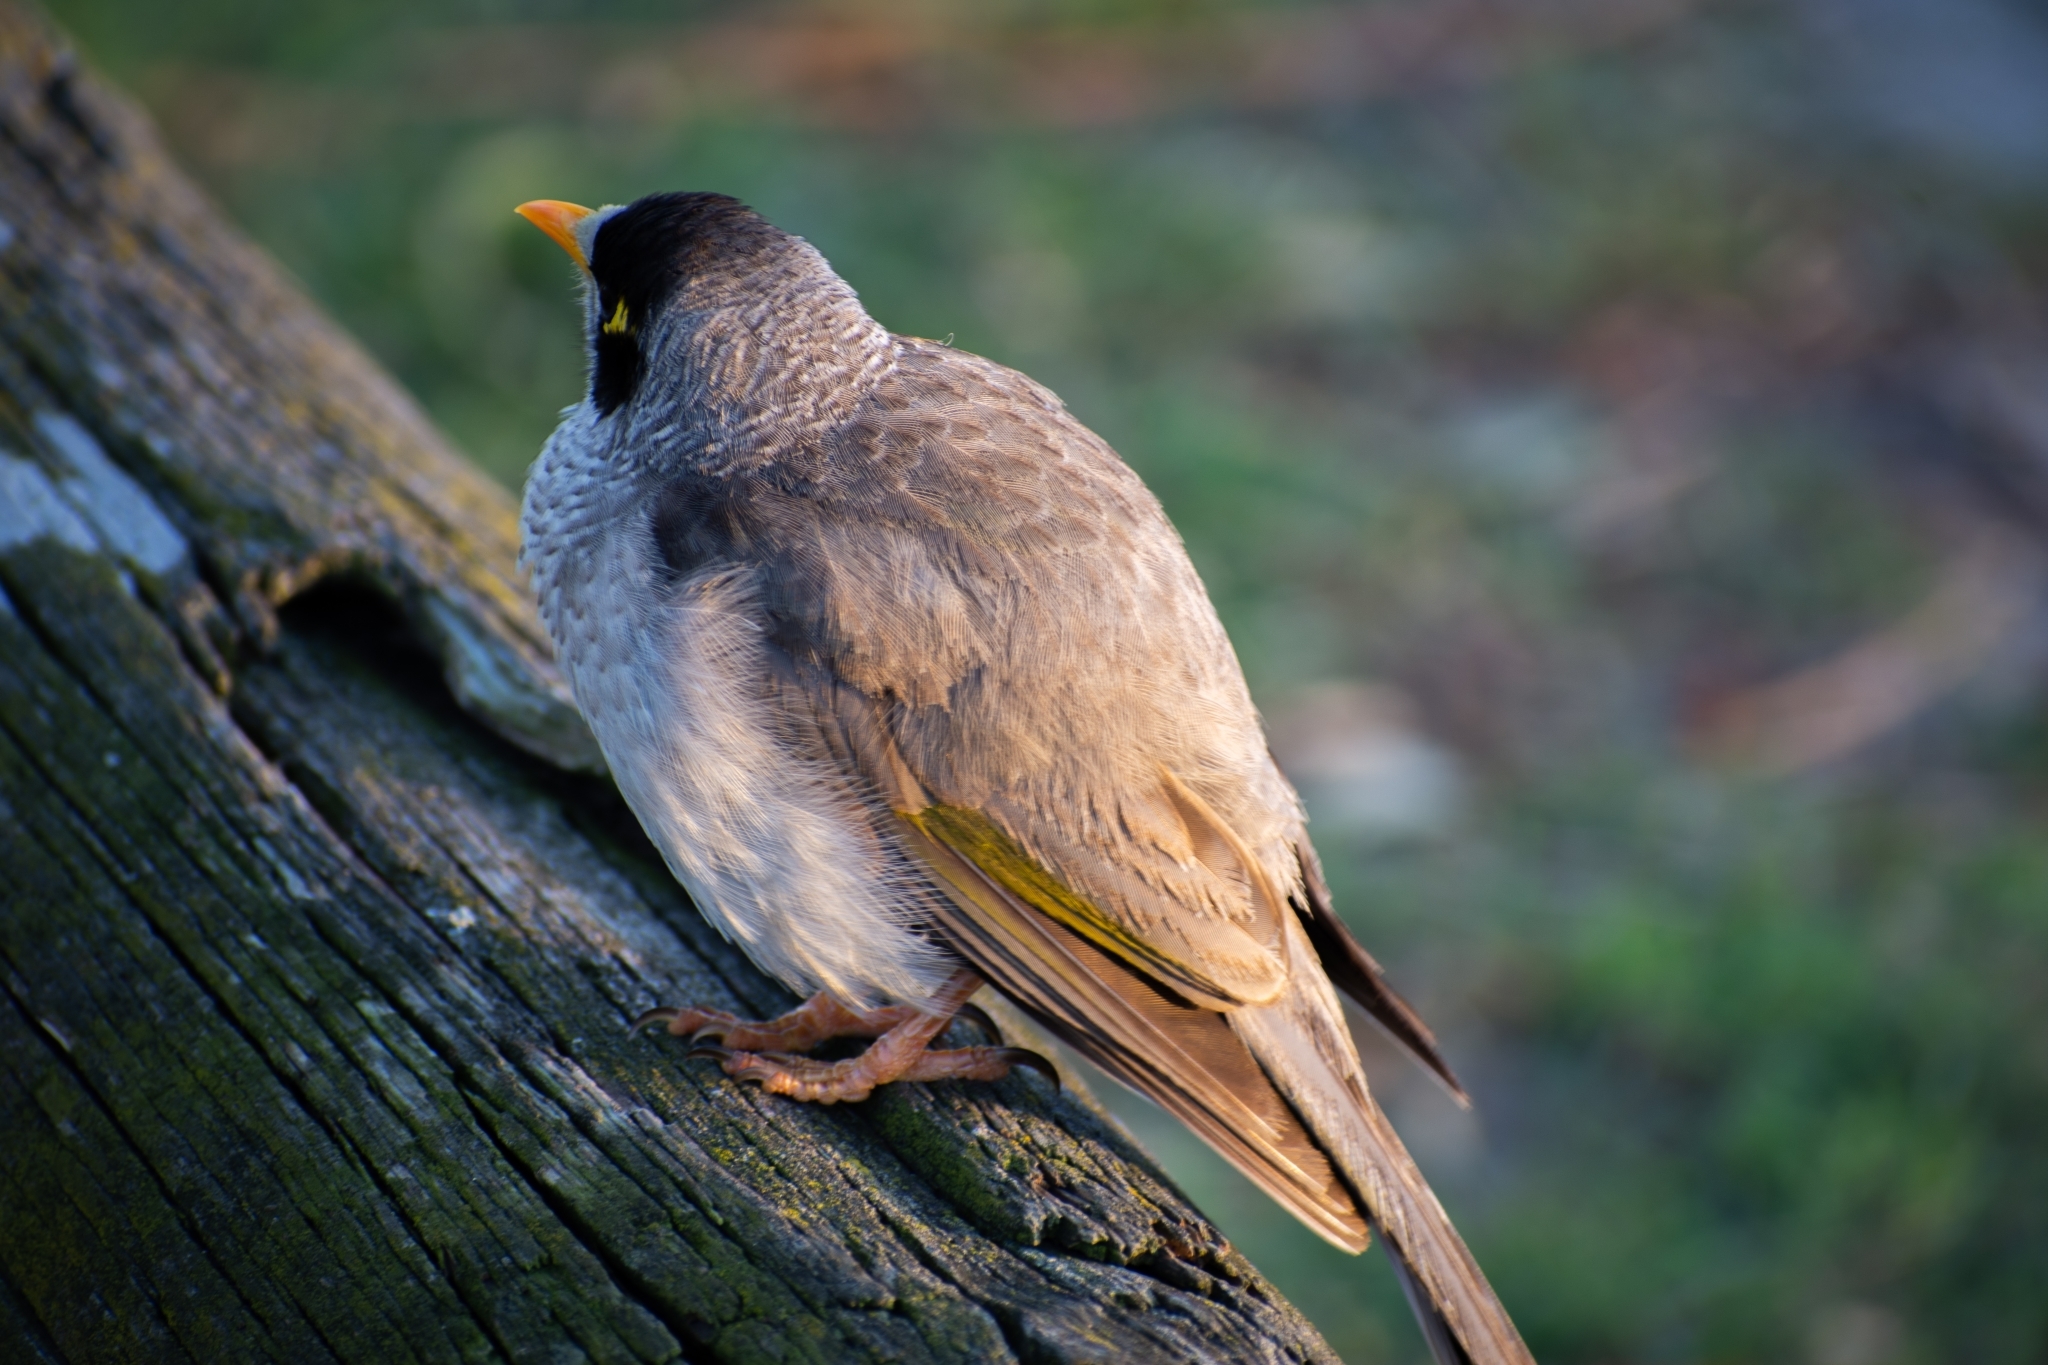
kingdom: Animalia
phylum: Chordata
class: Aves
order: Passeriformes
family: Meliphagidae
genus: Manorina
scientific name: Manorina melanocephala
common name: Noisy miner
